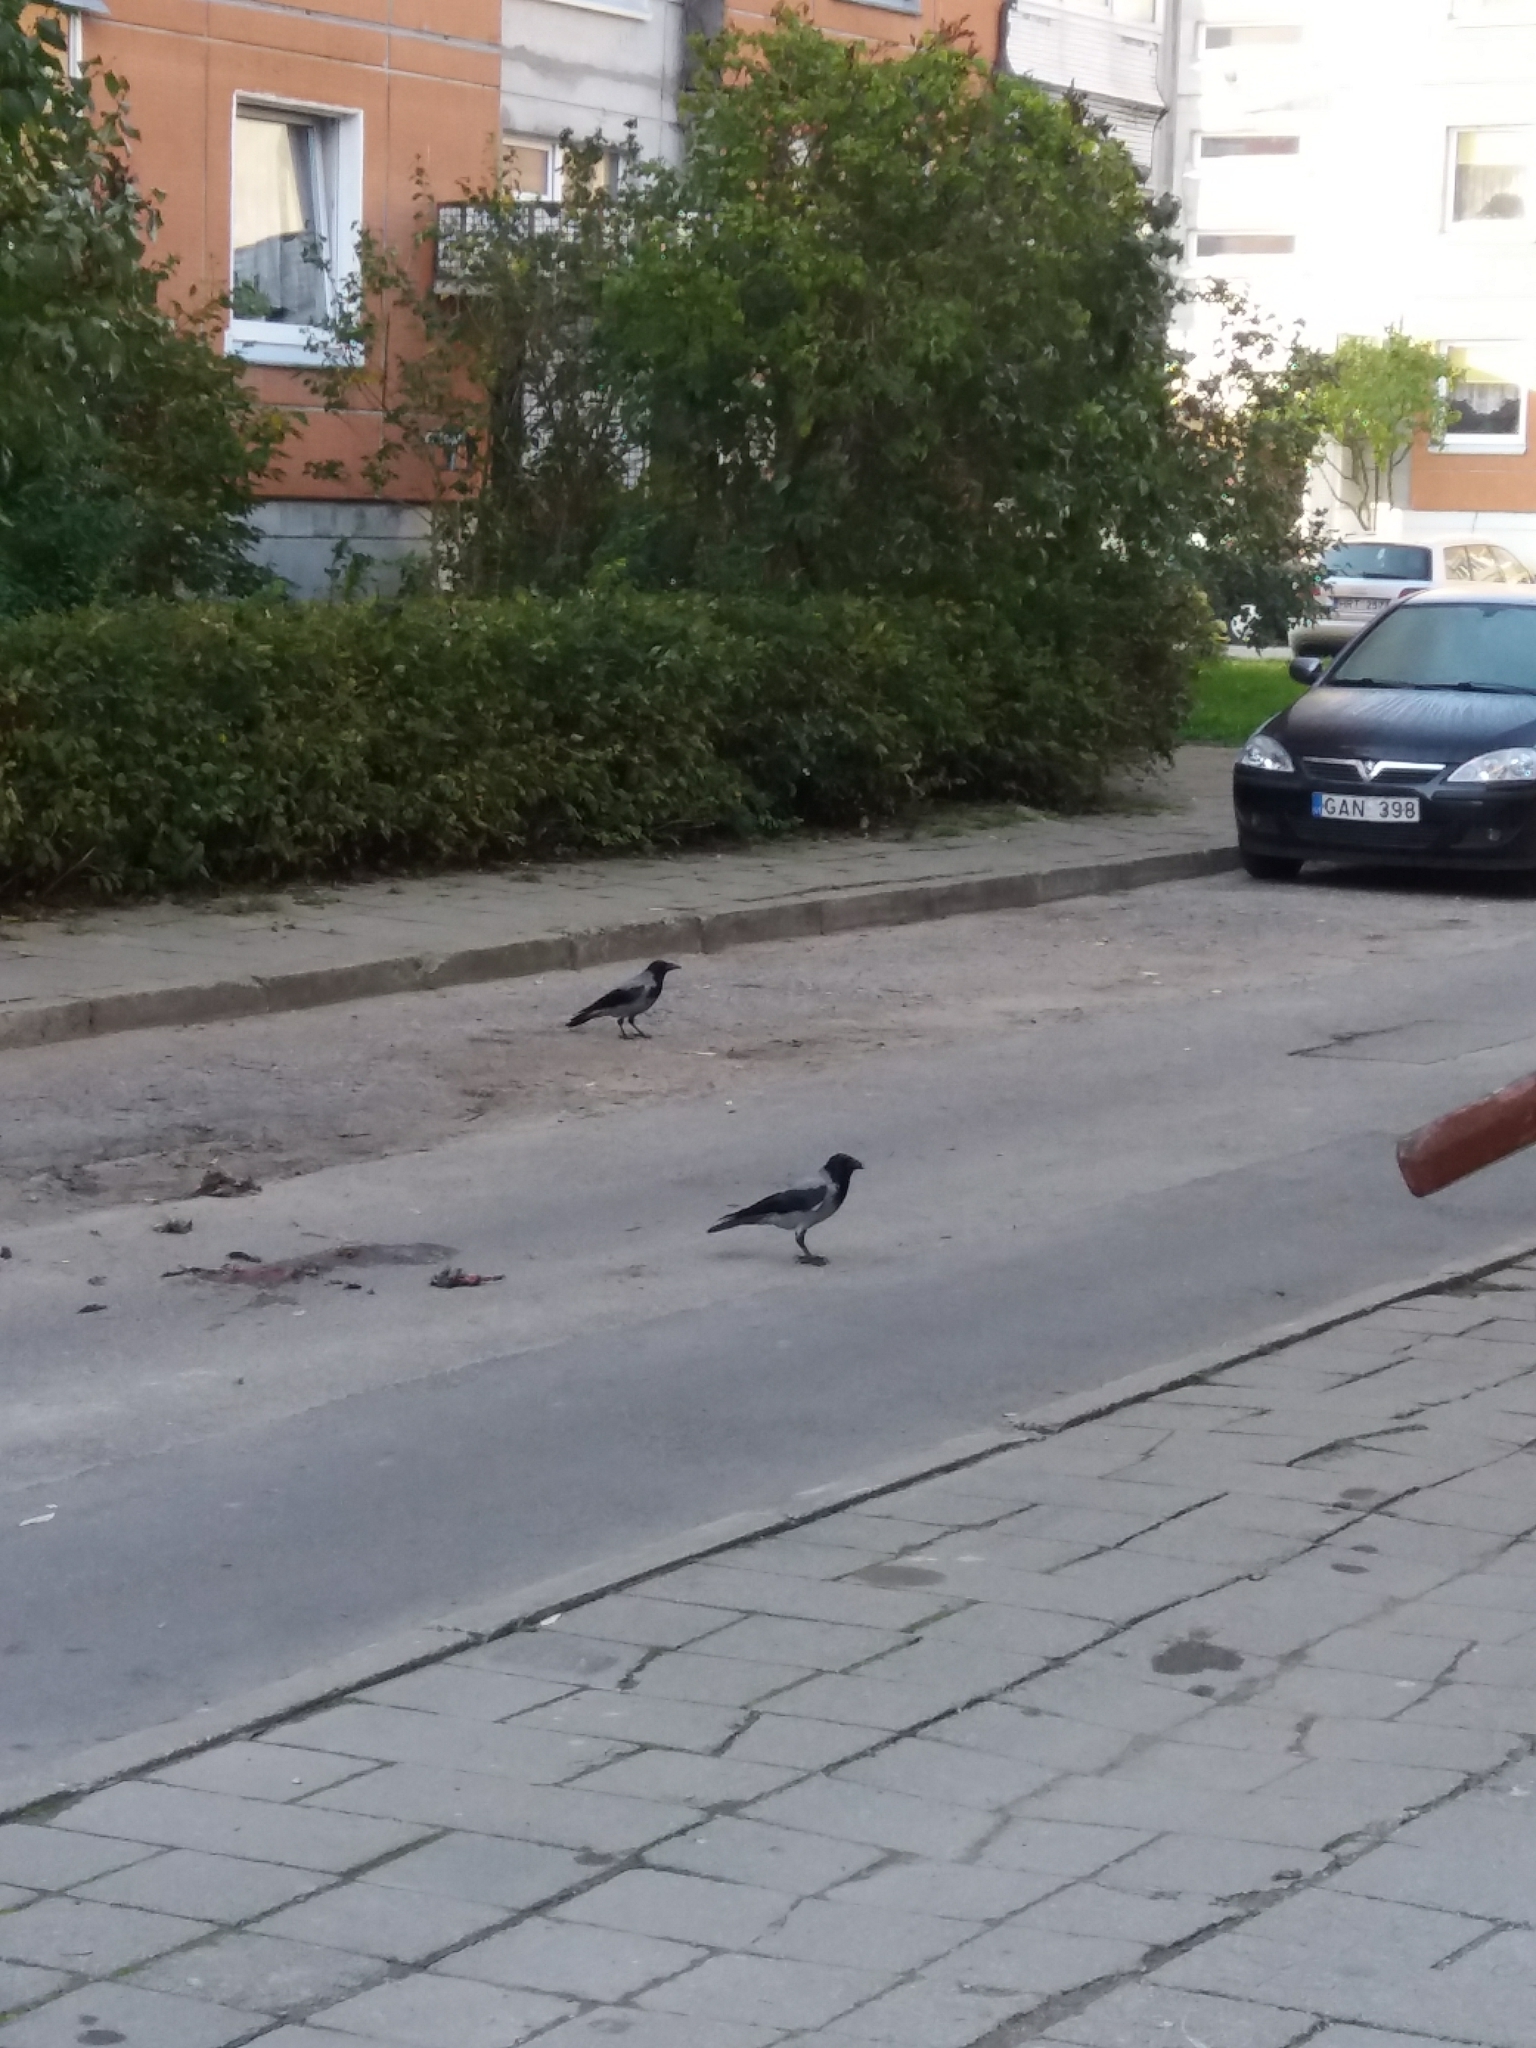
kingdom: Animalia
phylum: Chordata
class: Aves
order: Passeriformes
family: Corvidae
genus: Corvus
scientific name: Corvus cornix
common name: Hooded crow
